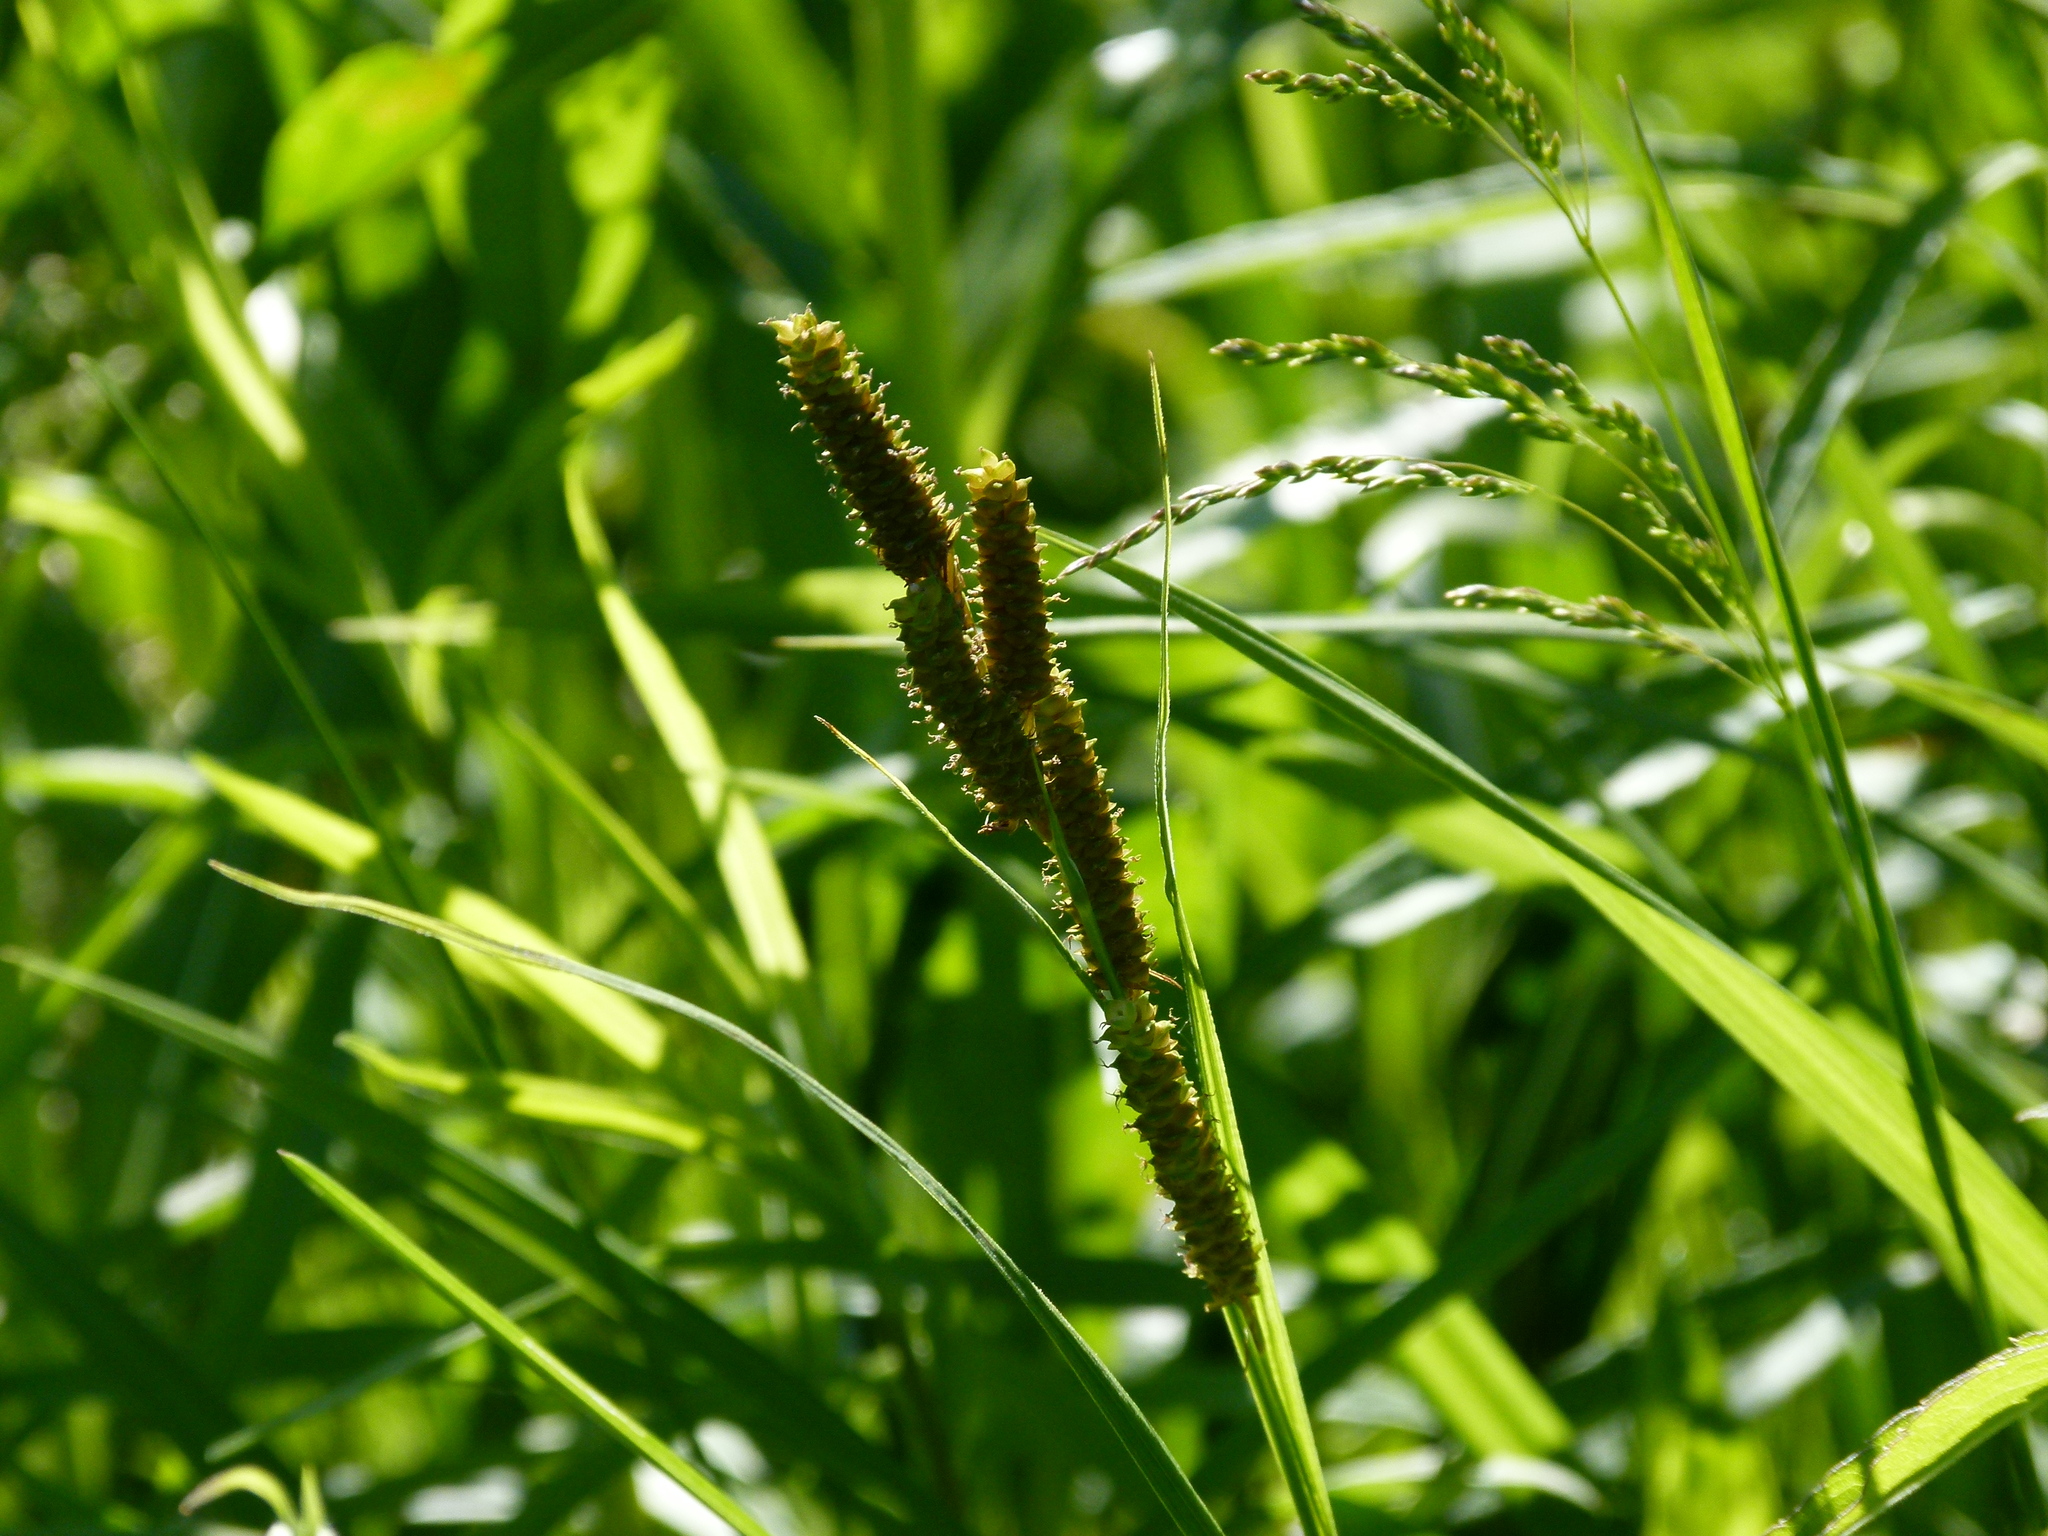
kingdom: Plantae
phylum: Tracheophyta
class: Liliopsida
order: Poales
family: Cyperaceae
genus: Carex
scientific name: Carex shortiana
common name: Short's sedge
